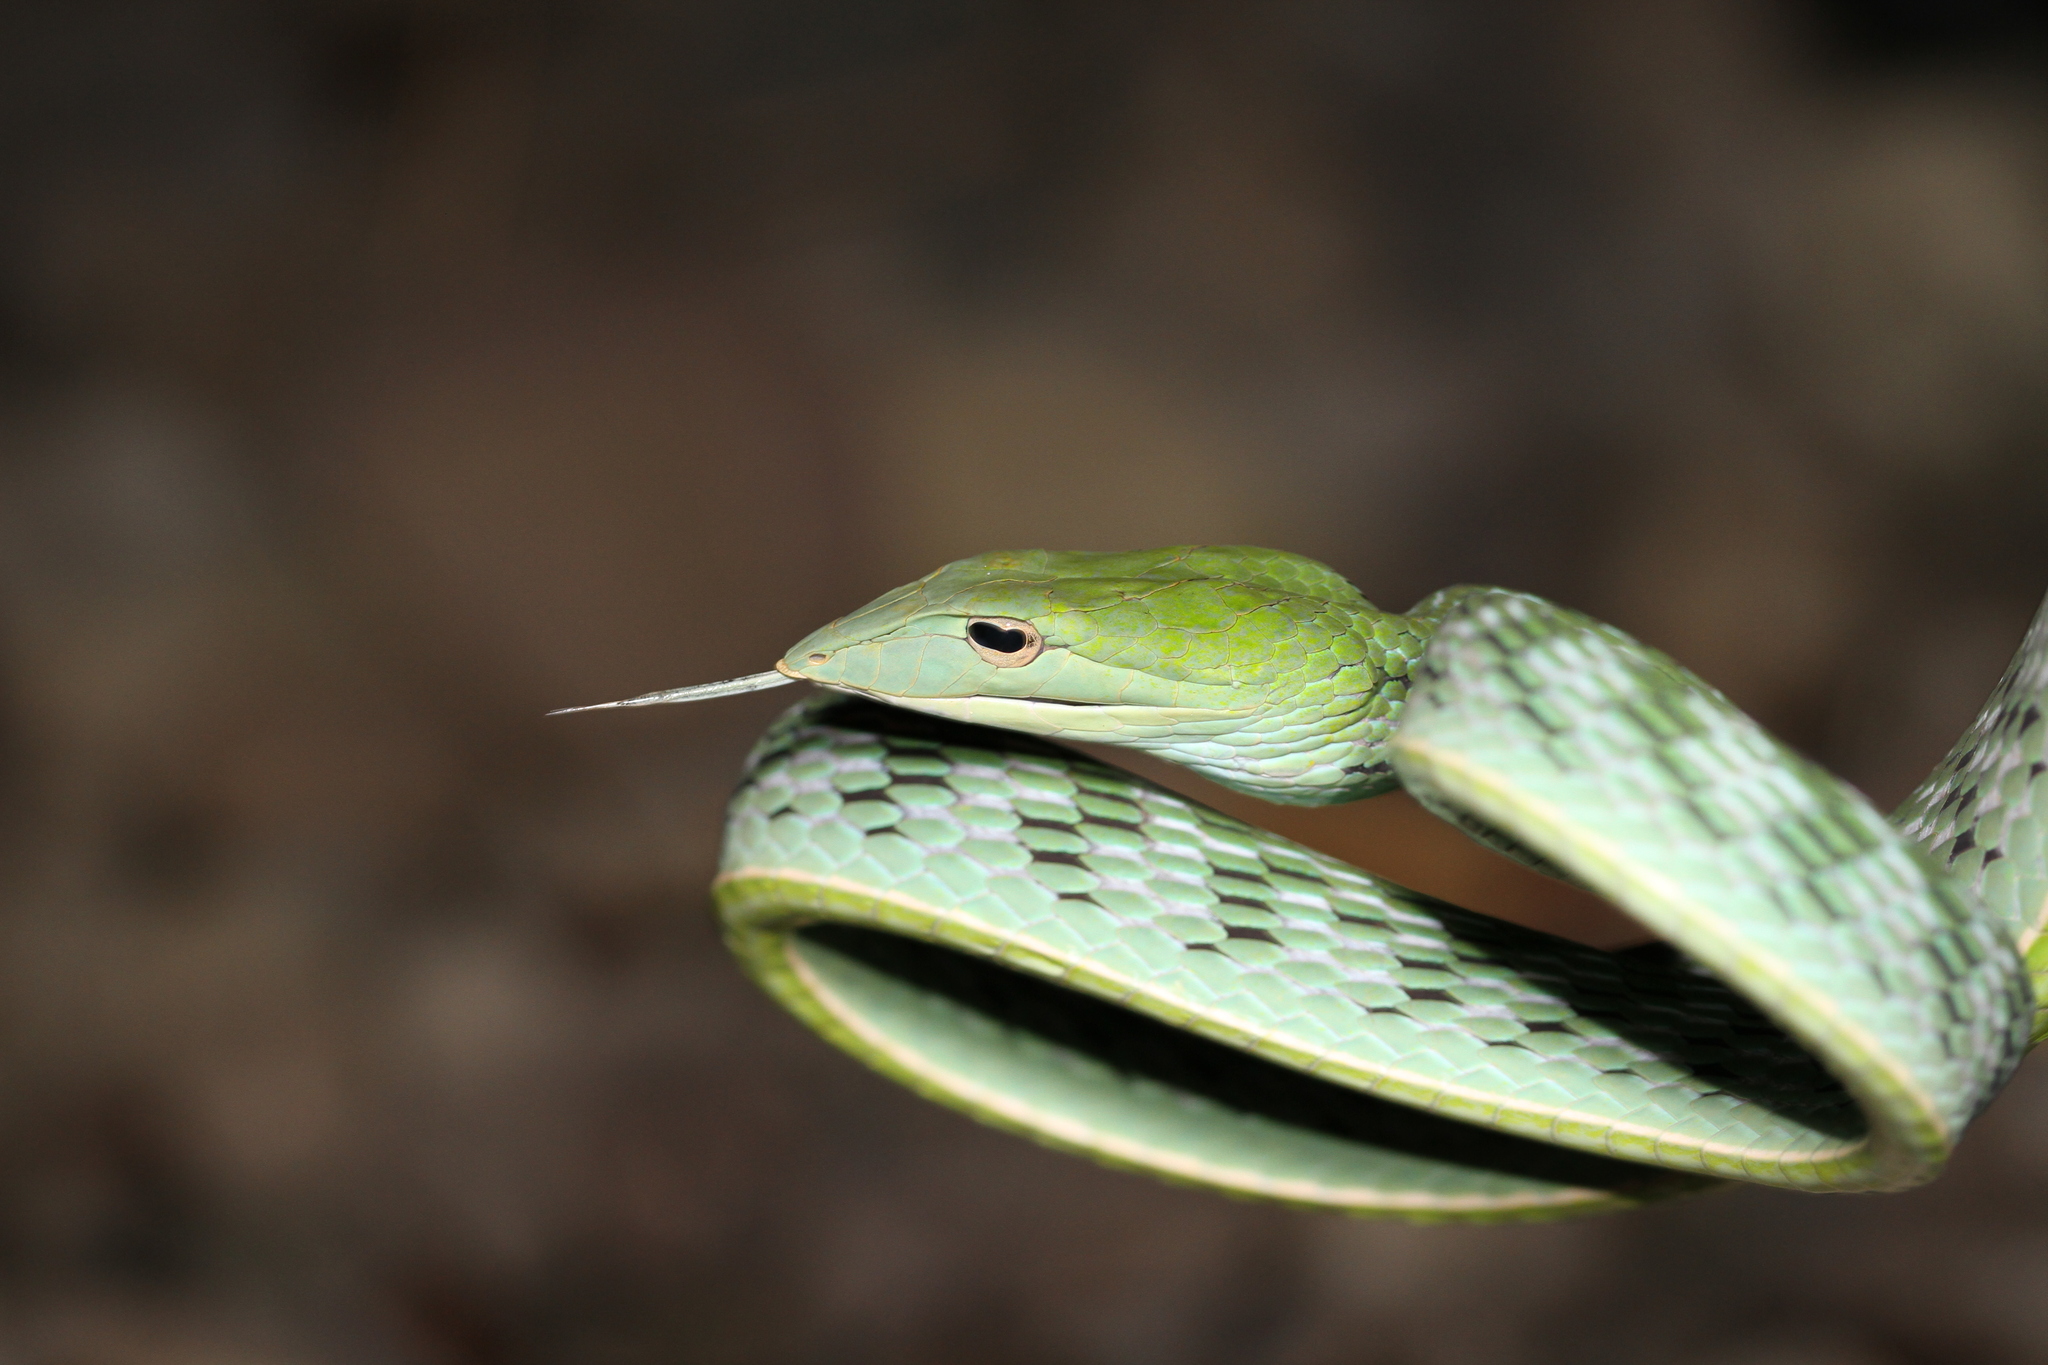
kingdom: Animalia
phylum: Chordata
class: Squamata
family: Colubridae
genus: Ahaetulla
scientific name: Ahaetulla prasina
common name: Oriental whip snake
